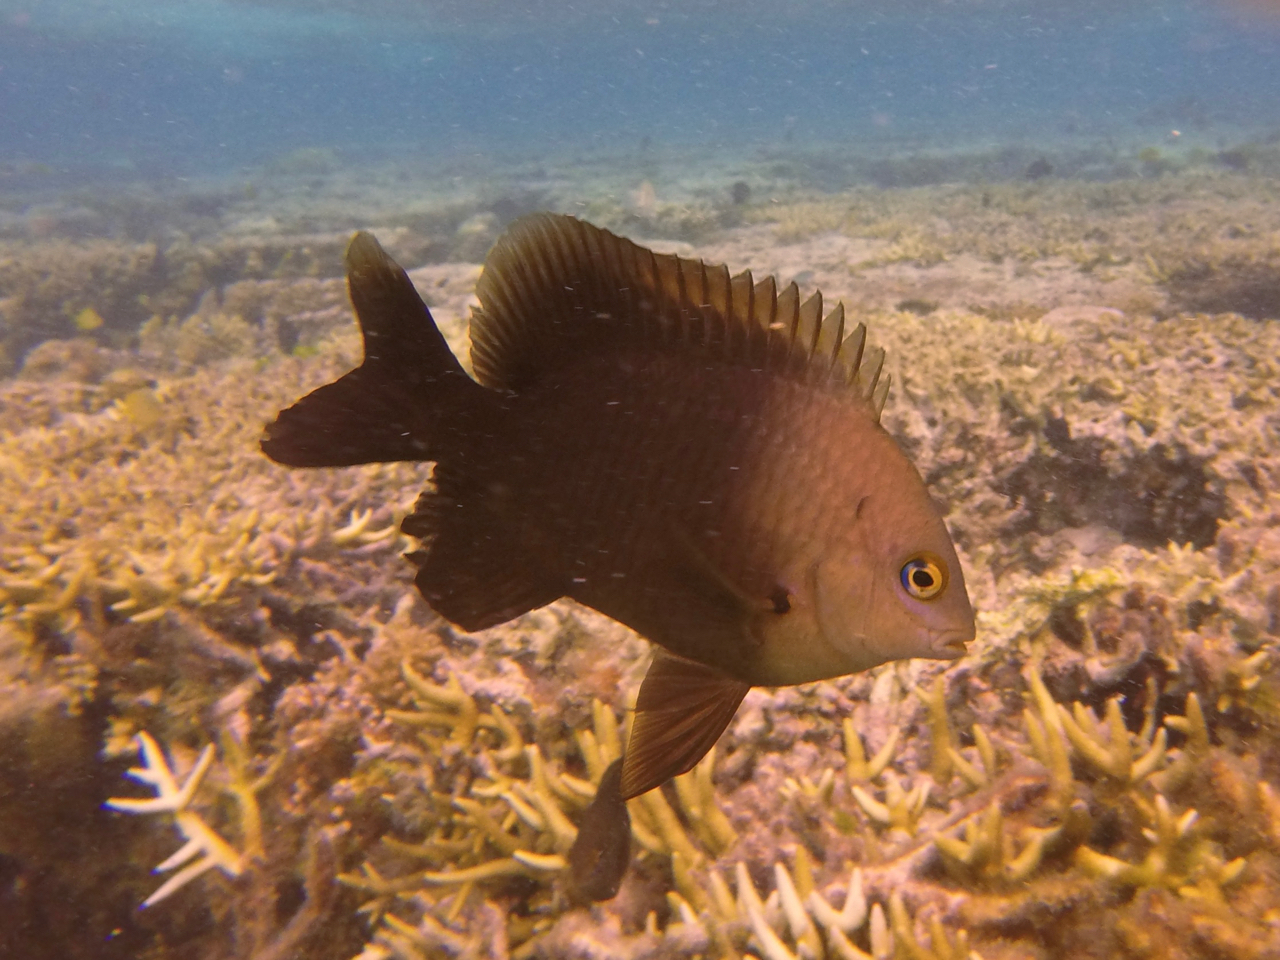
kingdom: Animalia
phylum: Chordata
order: Perciformes
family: Pomacentridae
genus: Stegastes
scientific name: Stegastes nigricans
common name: Dusky gregory
